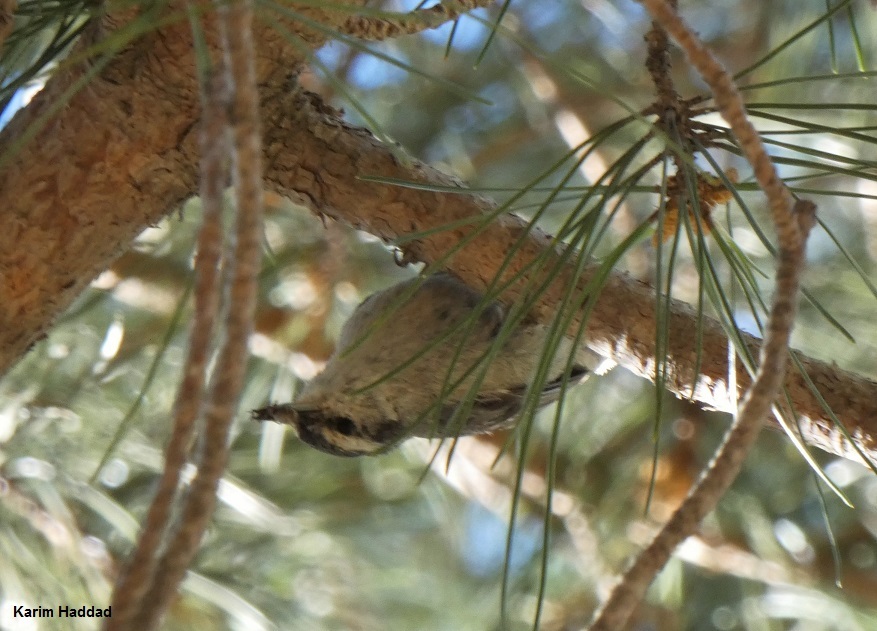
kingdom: Animalia
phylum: Chordata
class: Aves
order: Passeriformes
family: Sittidae
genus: Sitta
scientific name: Sitta whiteheadi
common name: Corsican nuthatch
